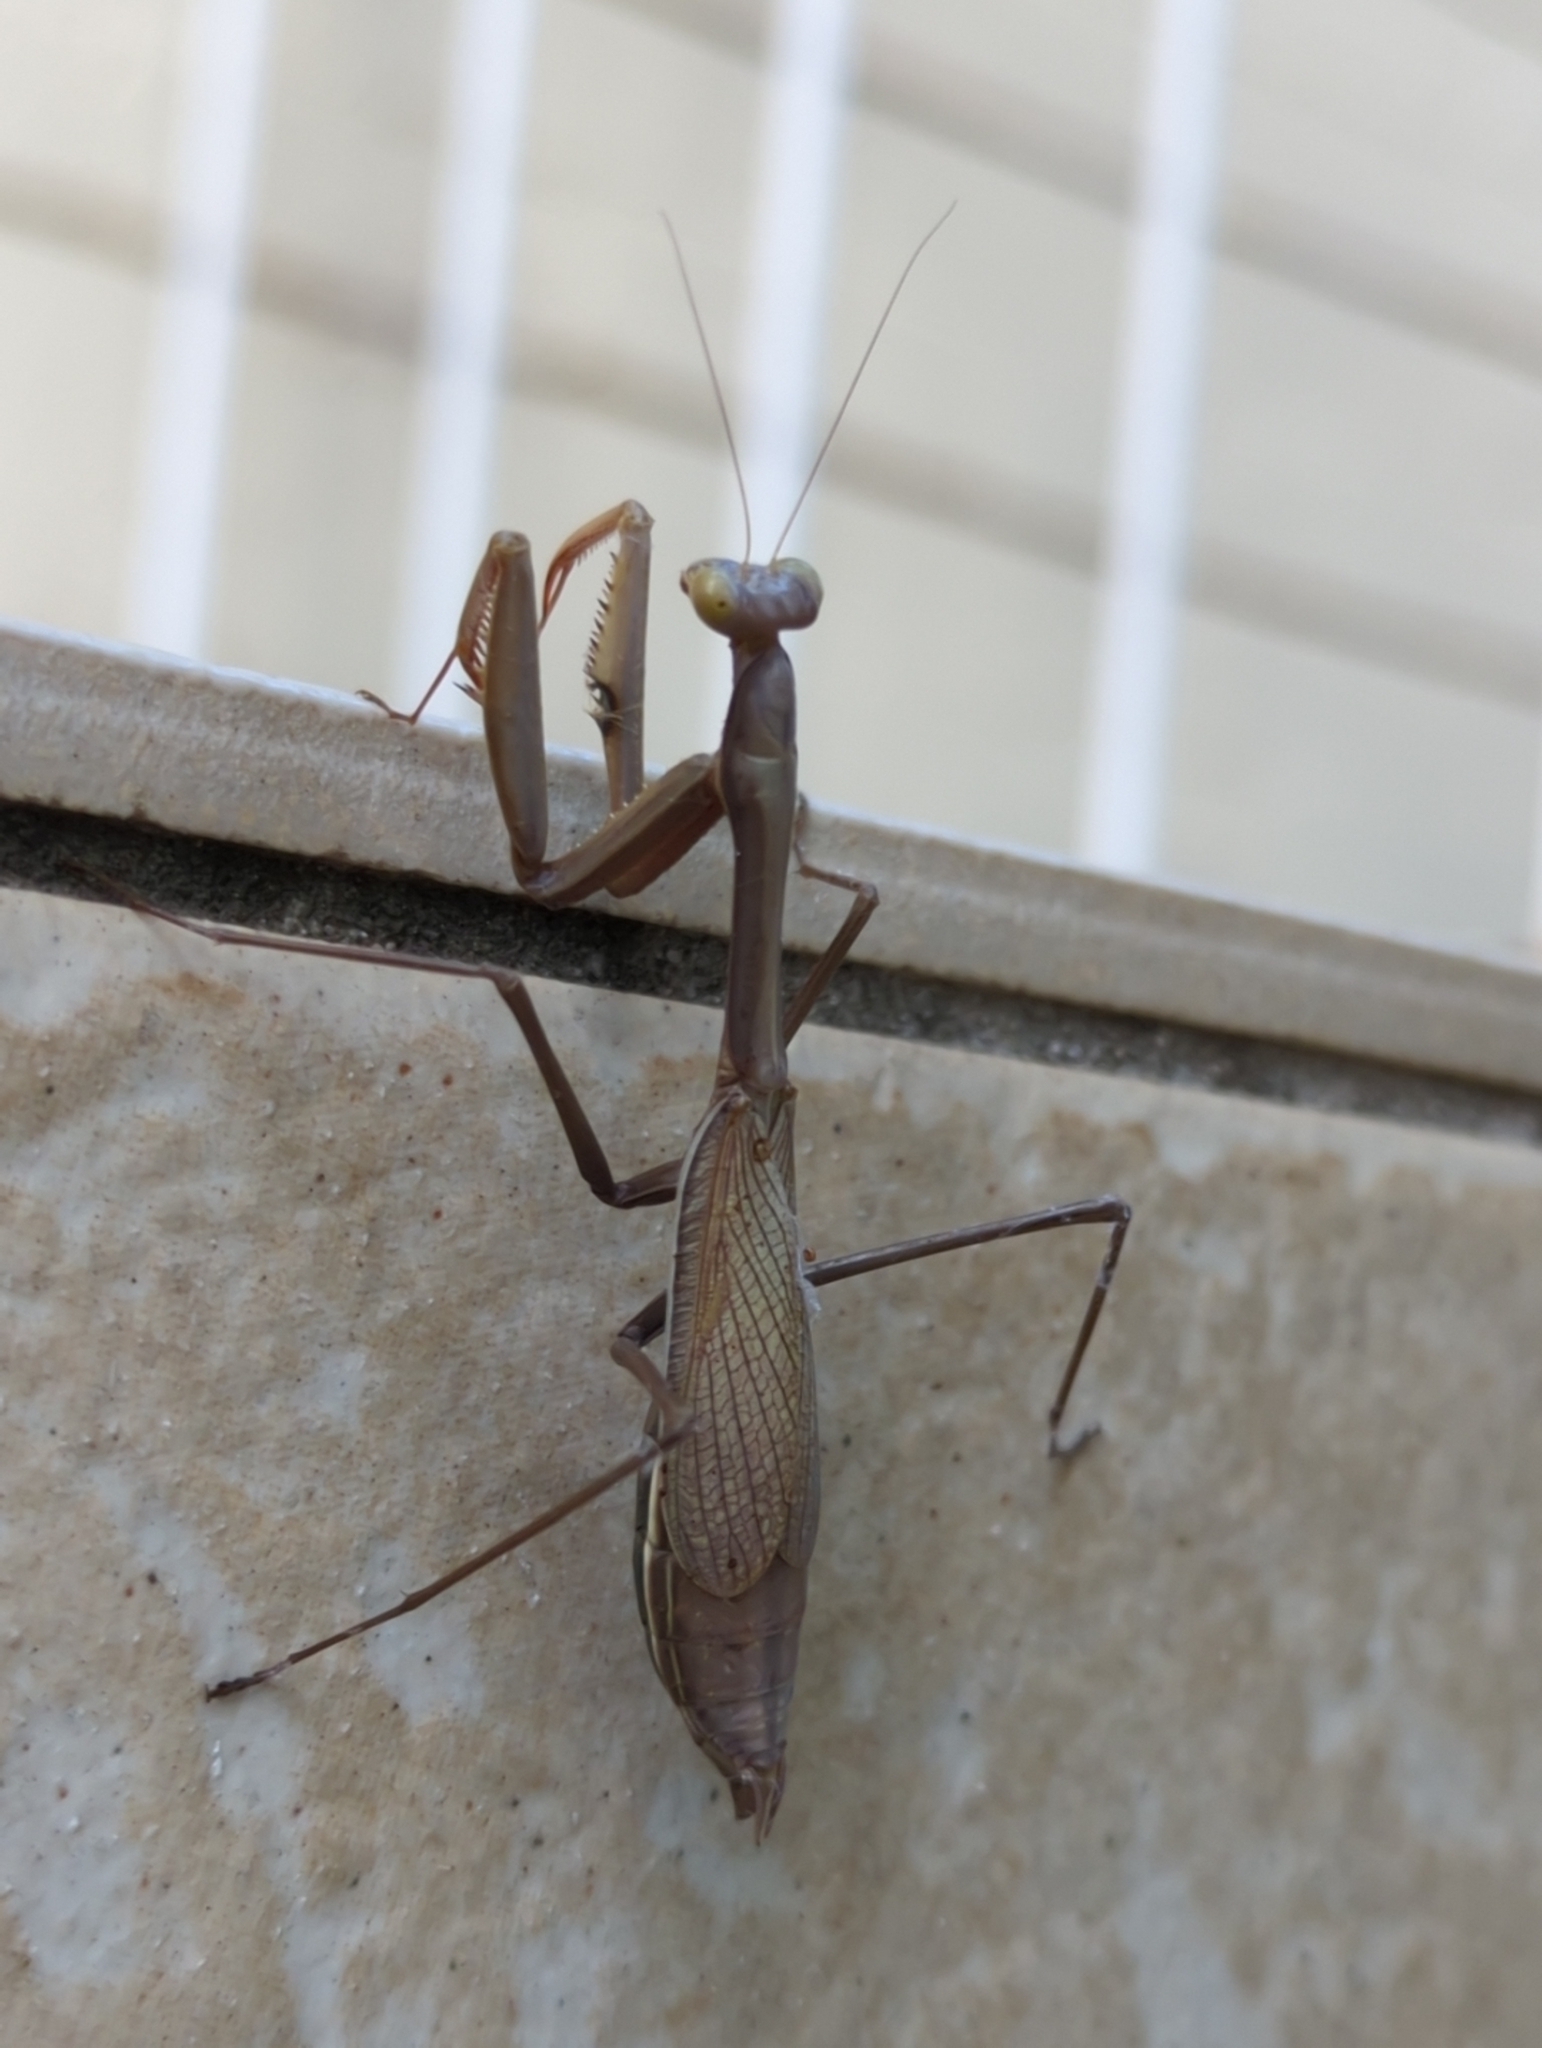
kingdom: Animalia
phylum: Arthropoda
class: Insecta
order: Mantodea
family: Mantidae
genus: Pseudomantis
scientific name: Pseudomantis albofimbriata
